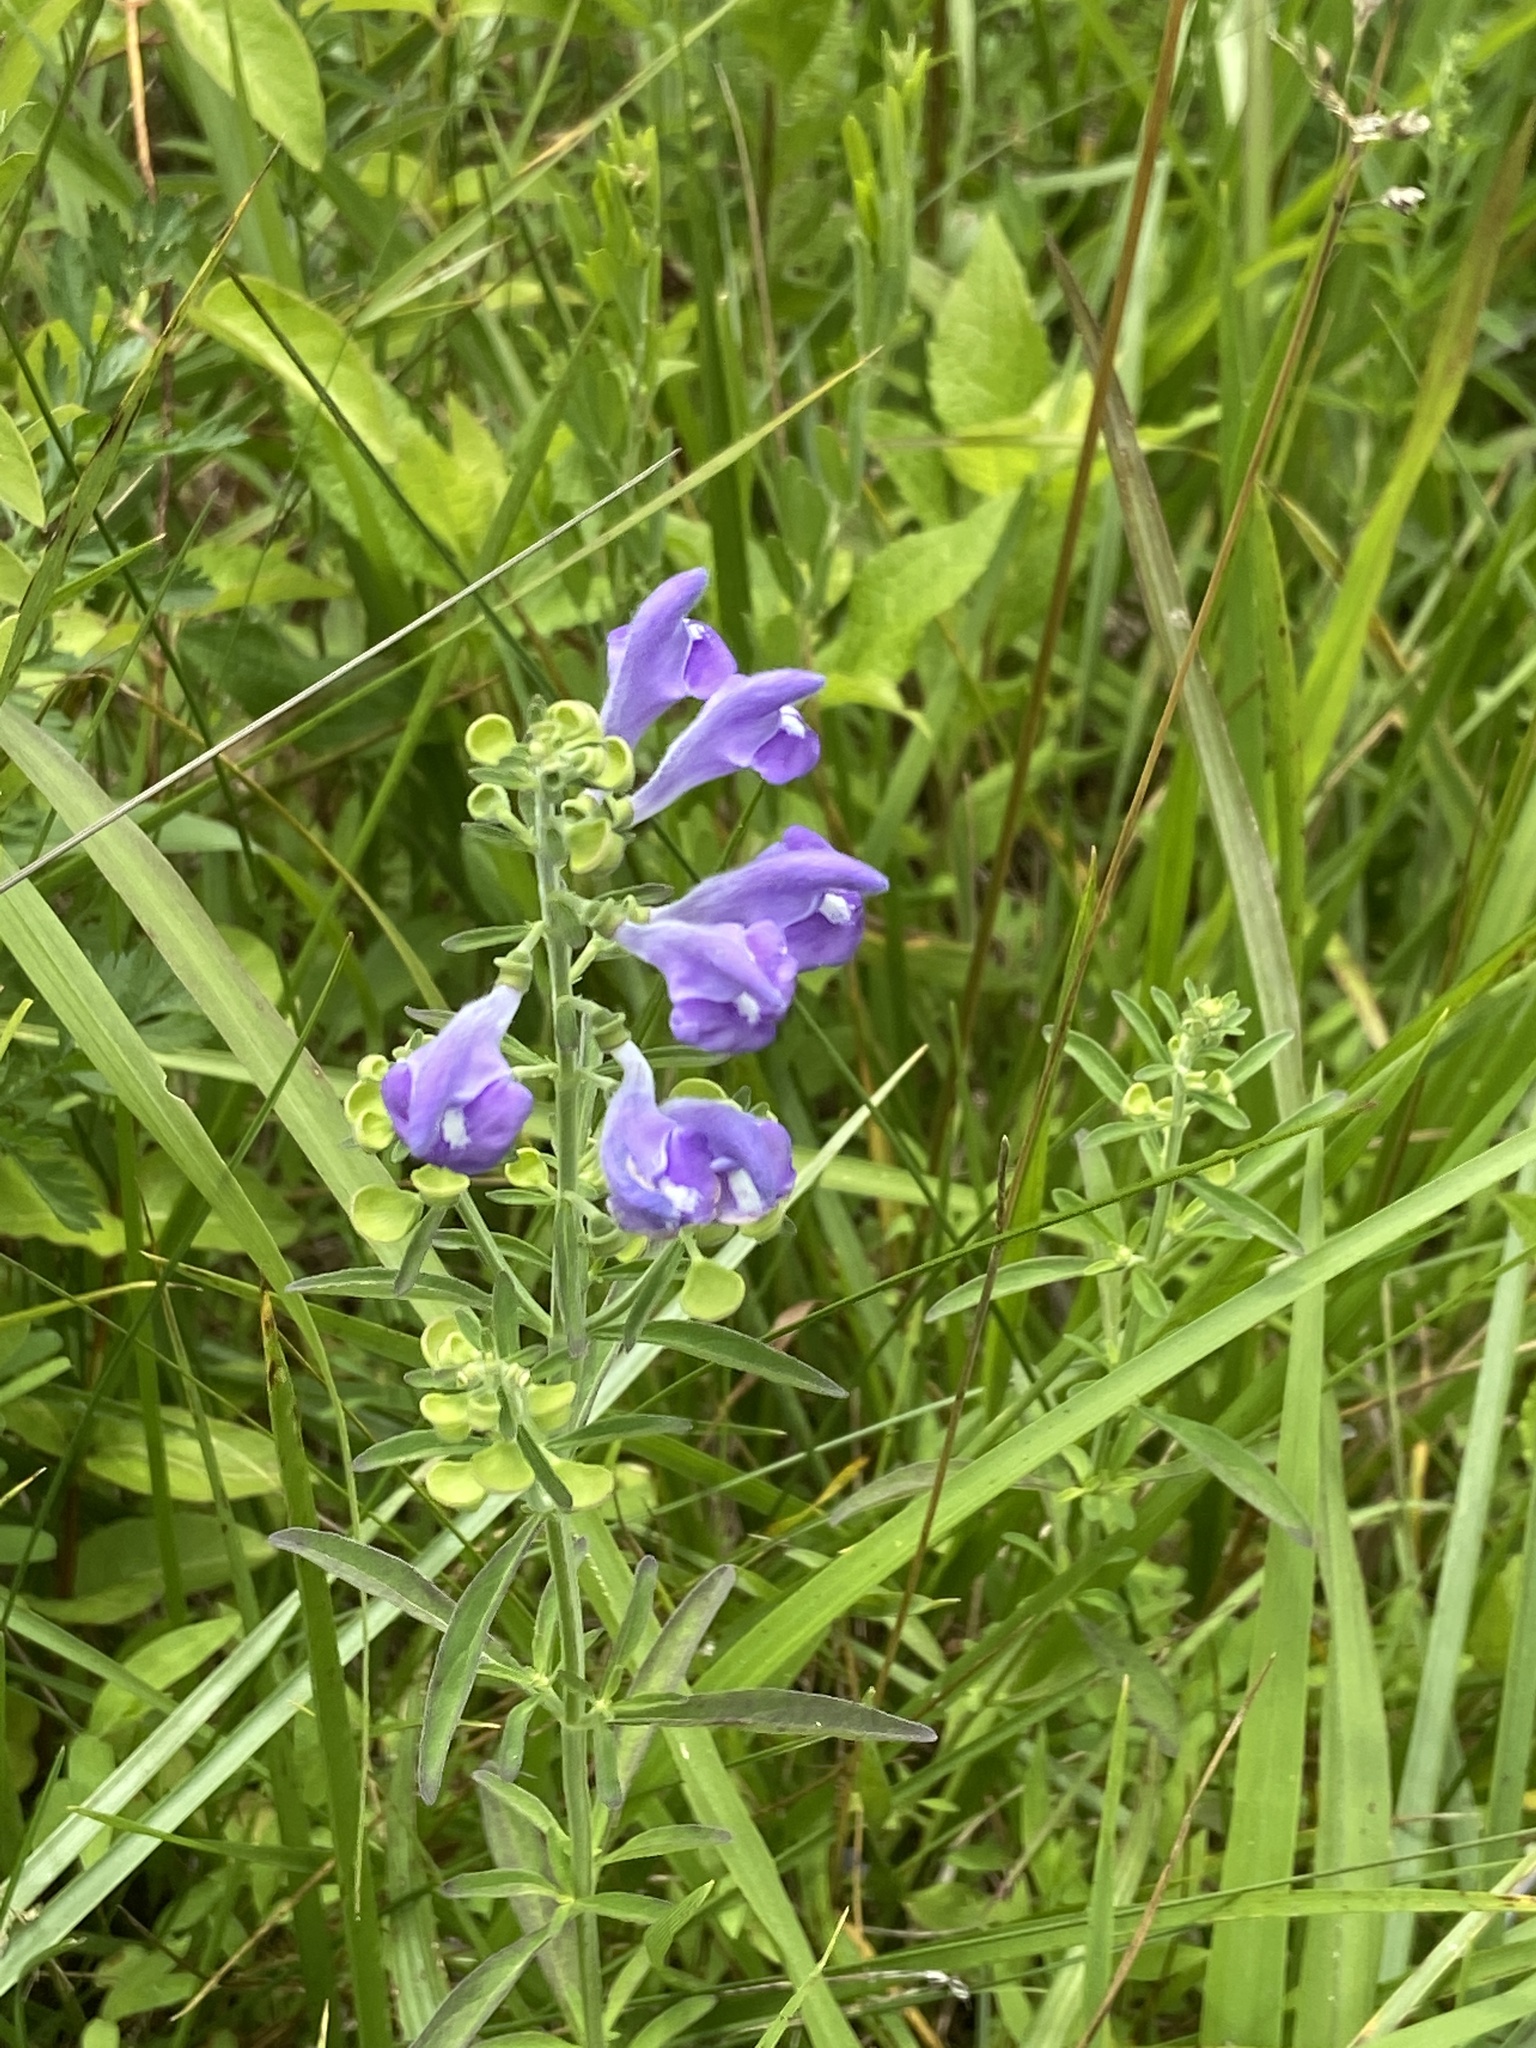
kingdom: Plantae
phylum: Tracheophyta
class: Magnoliopsida
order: Lamiales
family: Lamiaceae
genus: Scutellaria
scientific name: Scutellaria integrifolia
